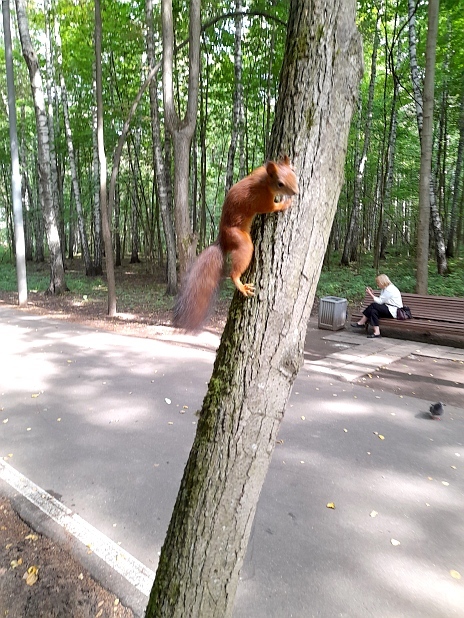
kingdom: Animalia
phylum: Chordata
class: Mammalia
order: Rodentia
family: Sciuridae
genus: Sciurus
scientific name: Sciurus vulgaris
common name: Eurasian red squirrel
